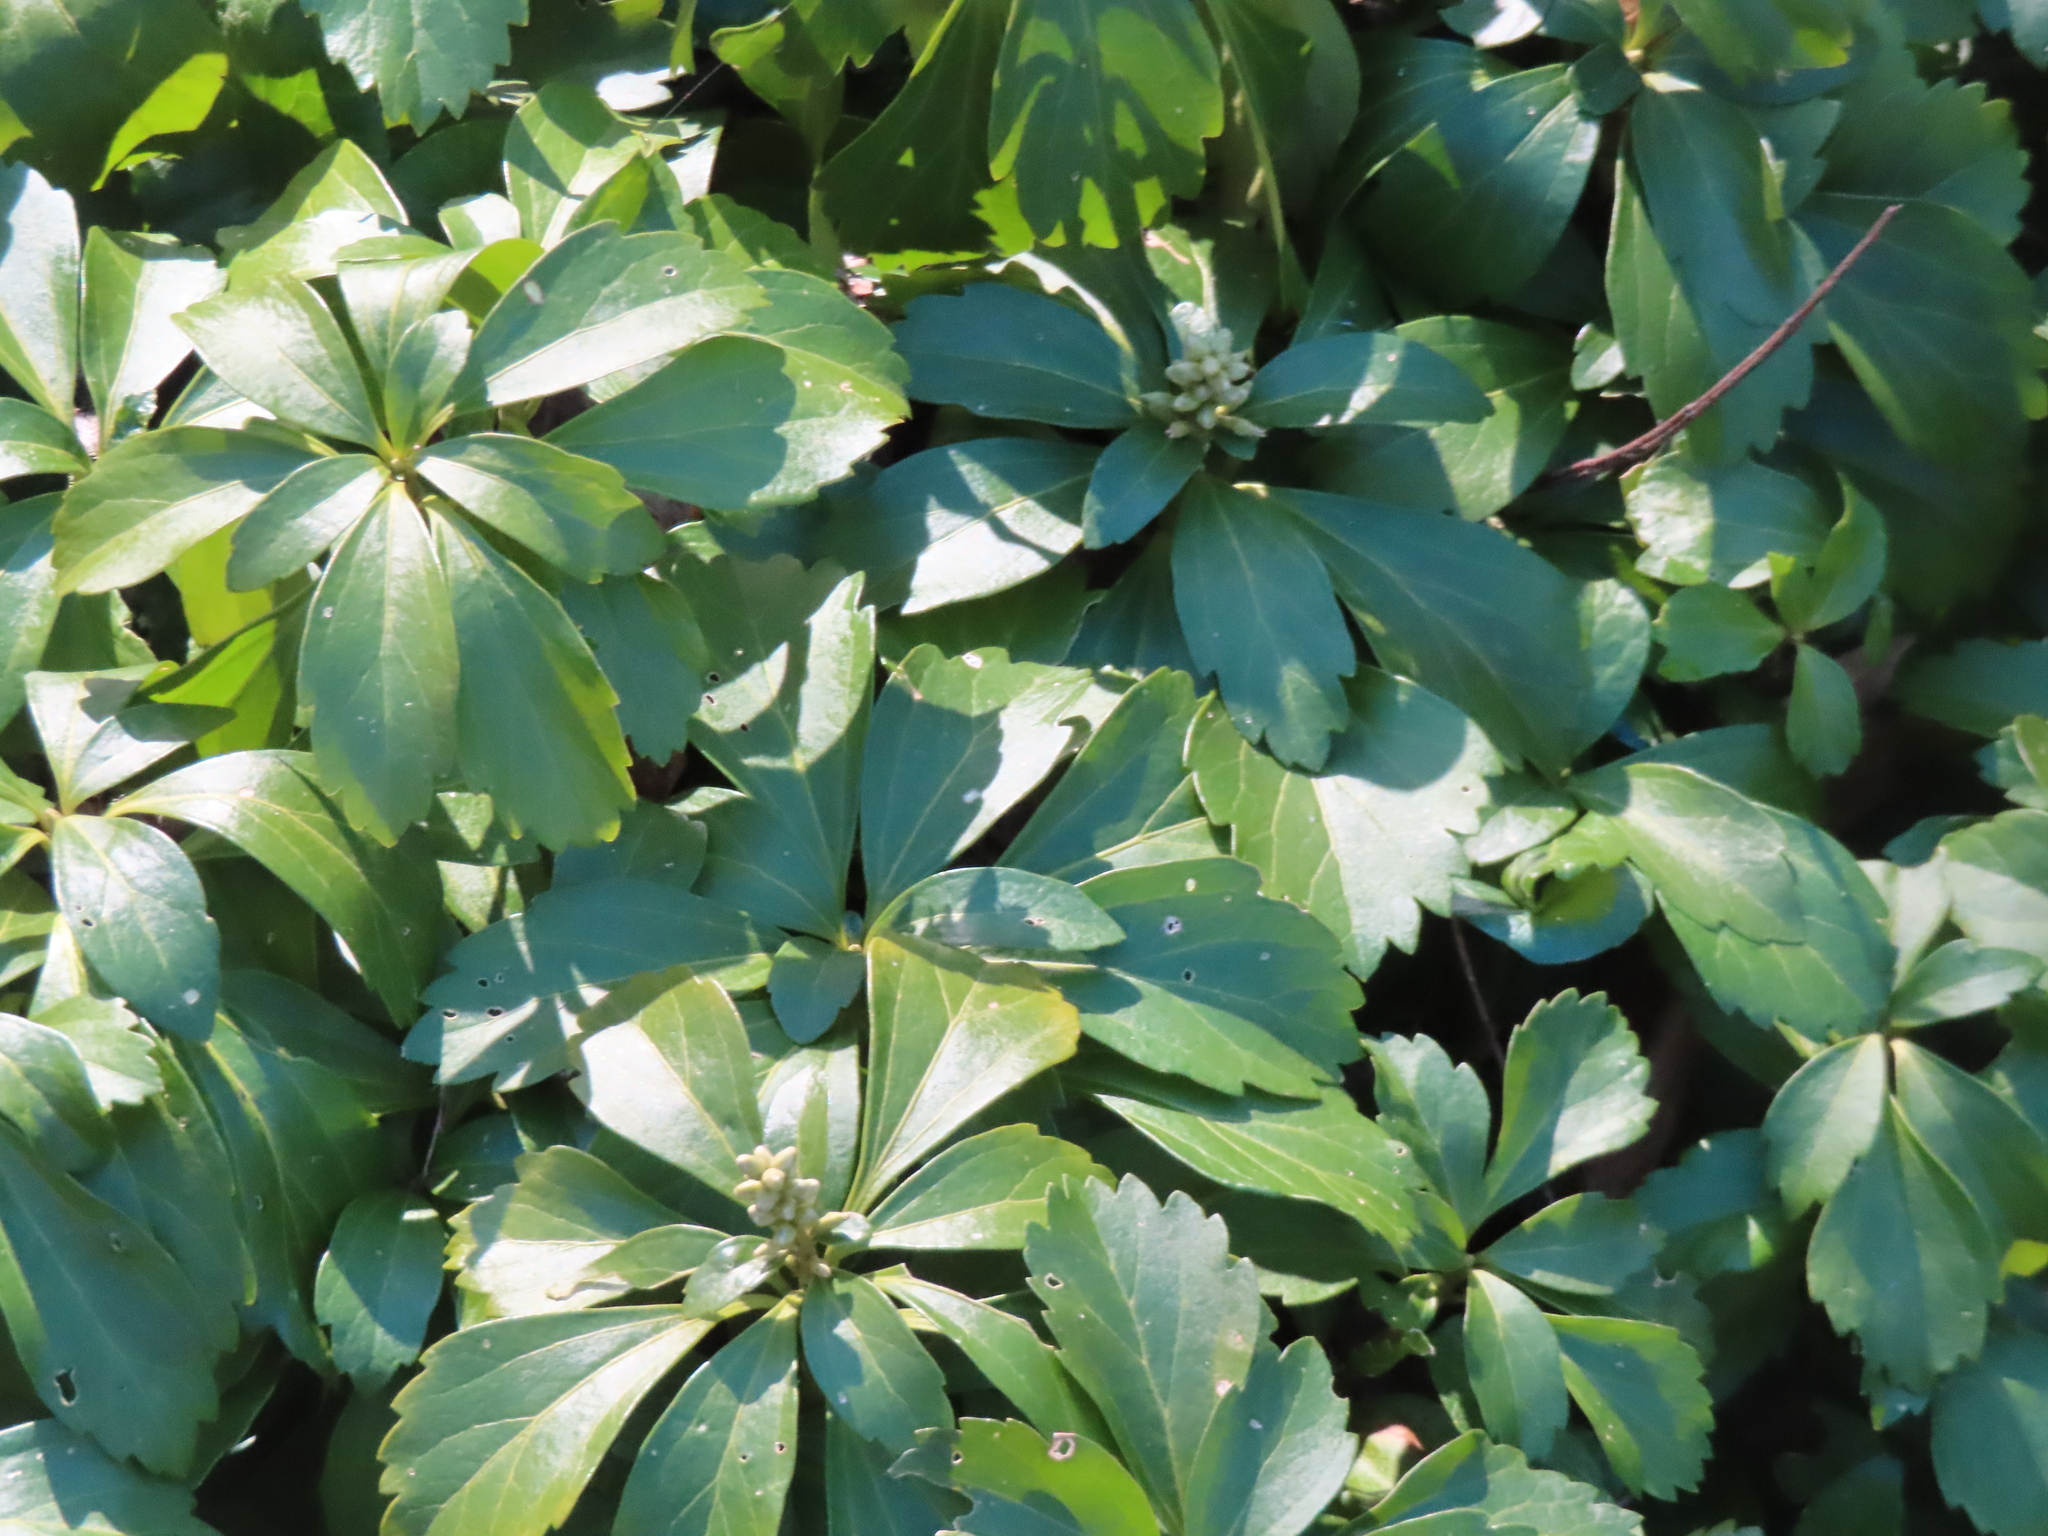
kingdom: Plantae
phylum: Tracheophyta
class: Magnoliopsida
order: Buxales
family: Buxaceae
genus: Pachysandra
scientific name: Pachysandra terminalis
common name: Japanese pachysandra
